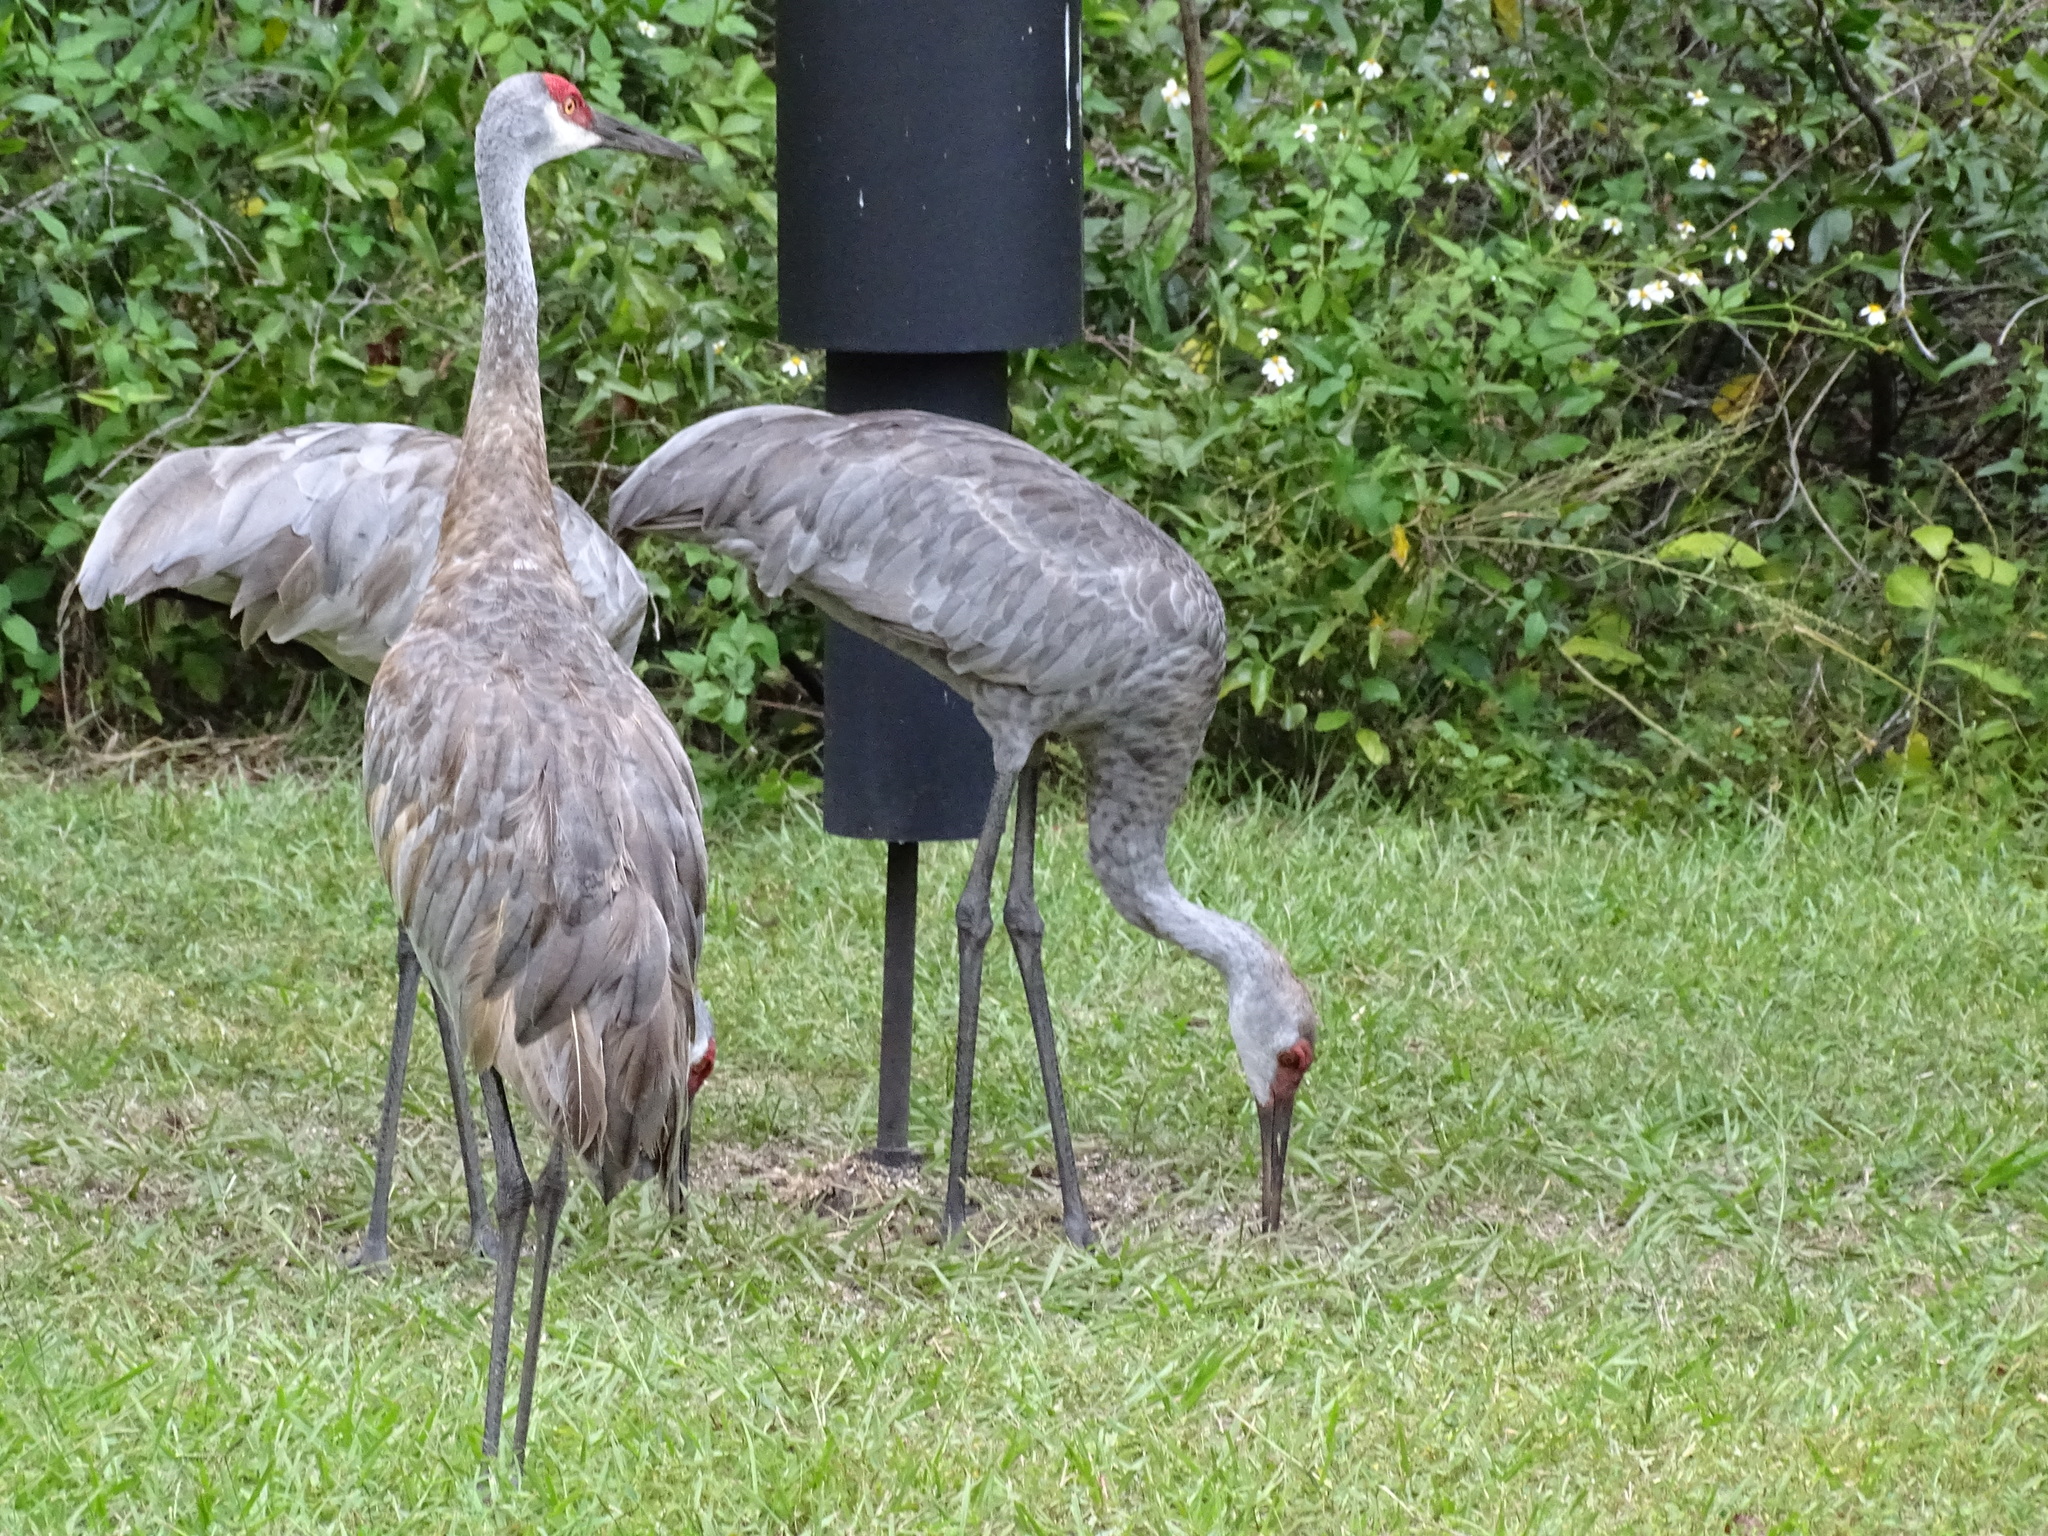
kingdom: Animalia
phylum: Chordata
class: Aves
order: Gruiformes
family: Gruidae
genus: Grus
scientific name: Grus canadensis
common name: Sandhill crane
